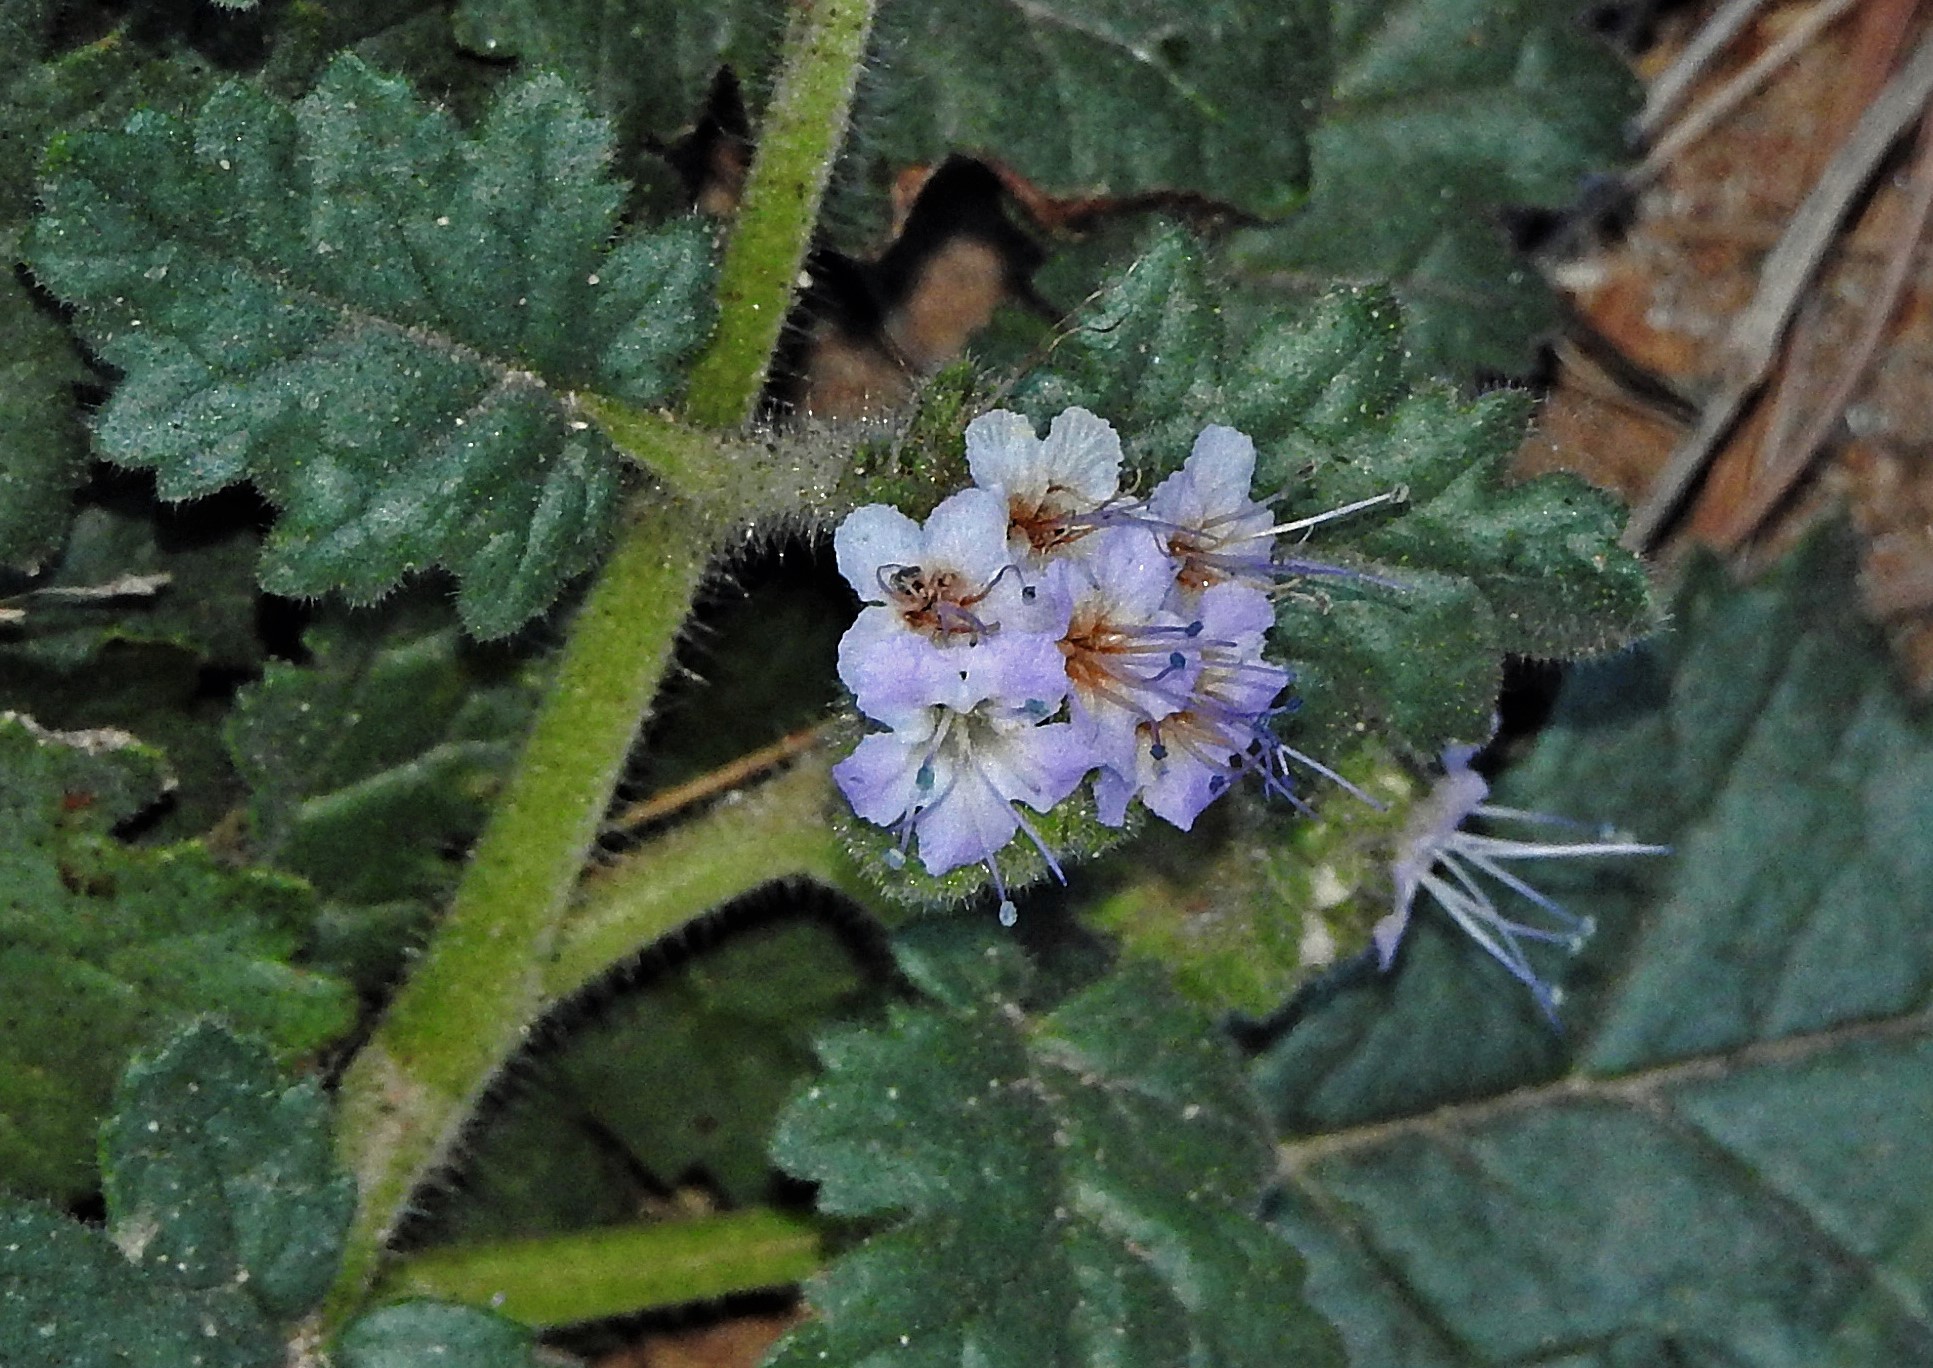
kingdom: Plantae
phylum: Tracheophyta
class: Magnoliopsida
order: Boraginales
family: Hydrophyllaceae
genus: Phacelia
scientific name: Phacelia pinnatifida
